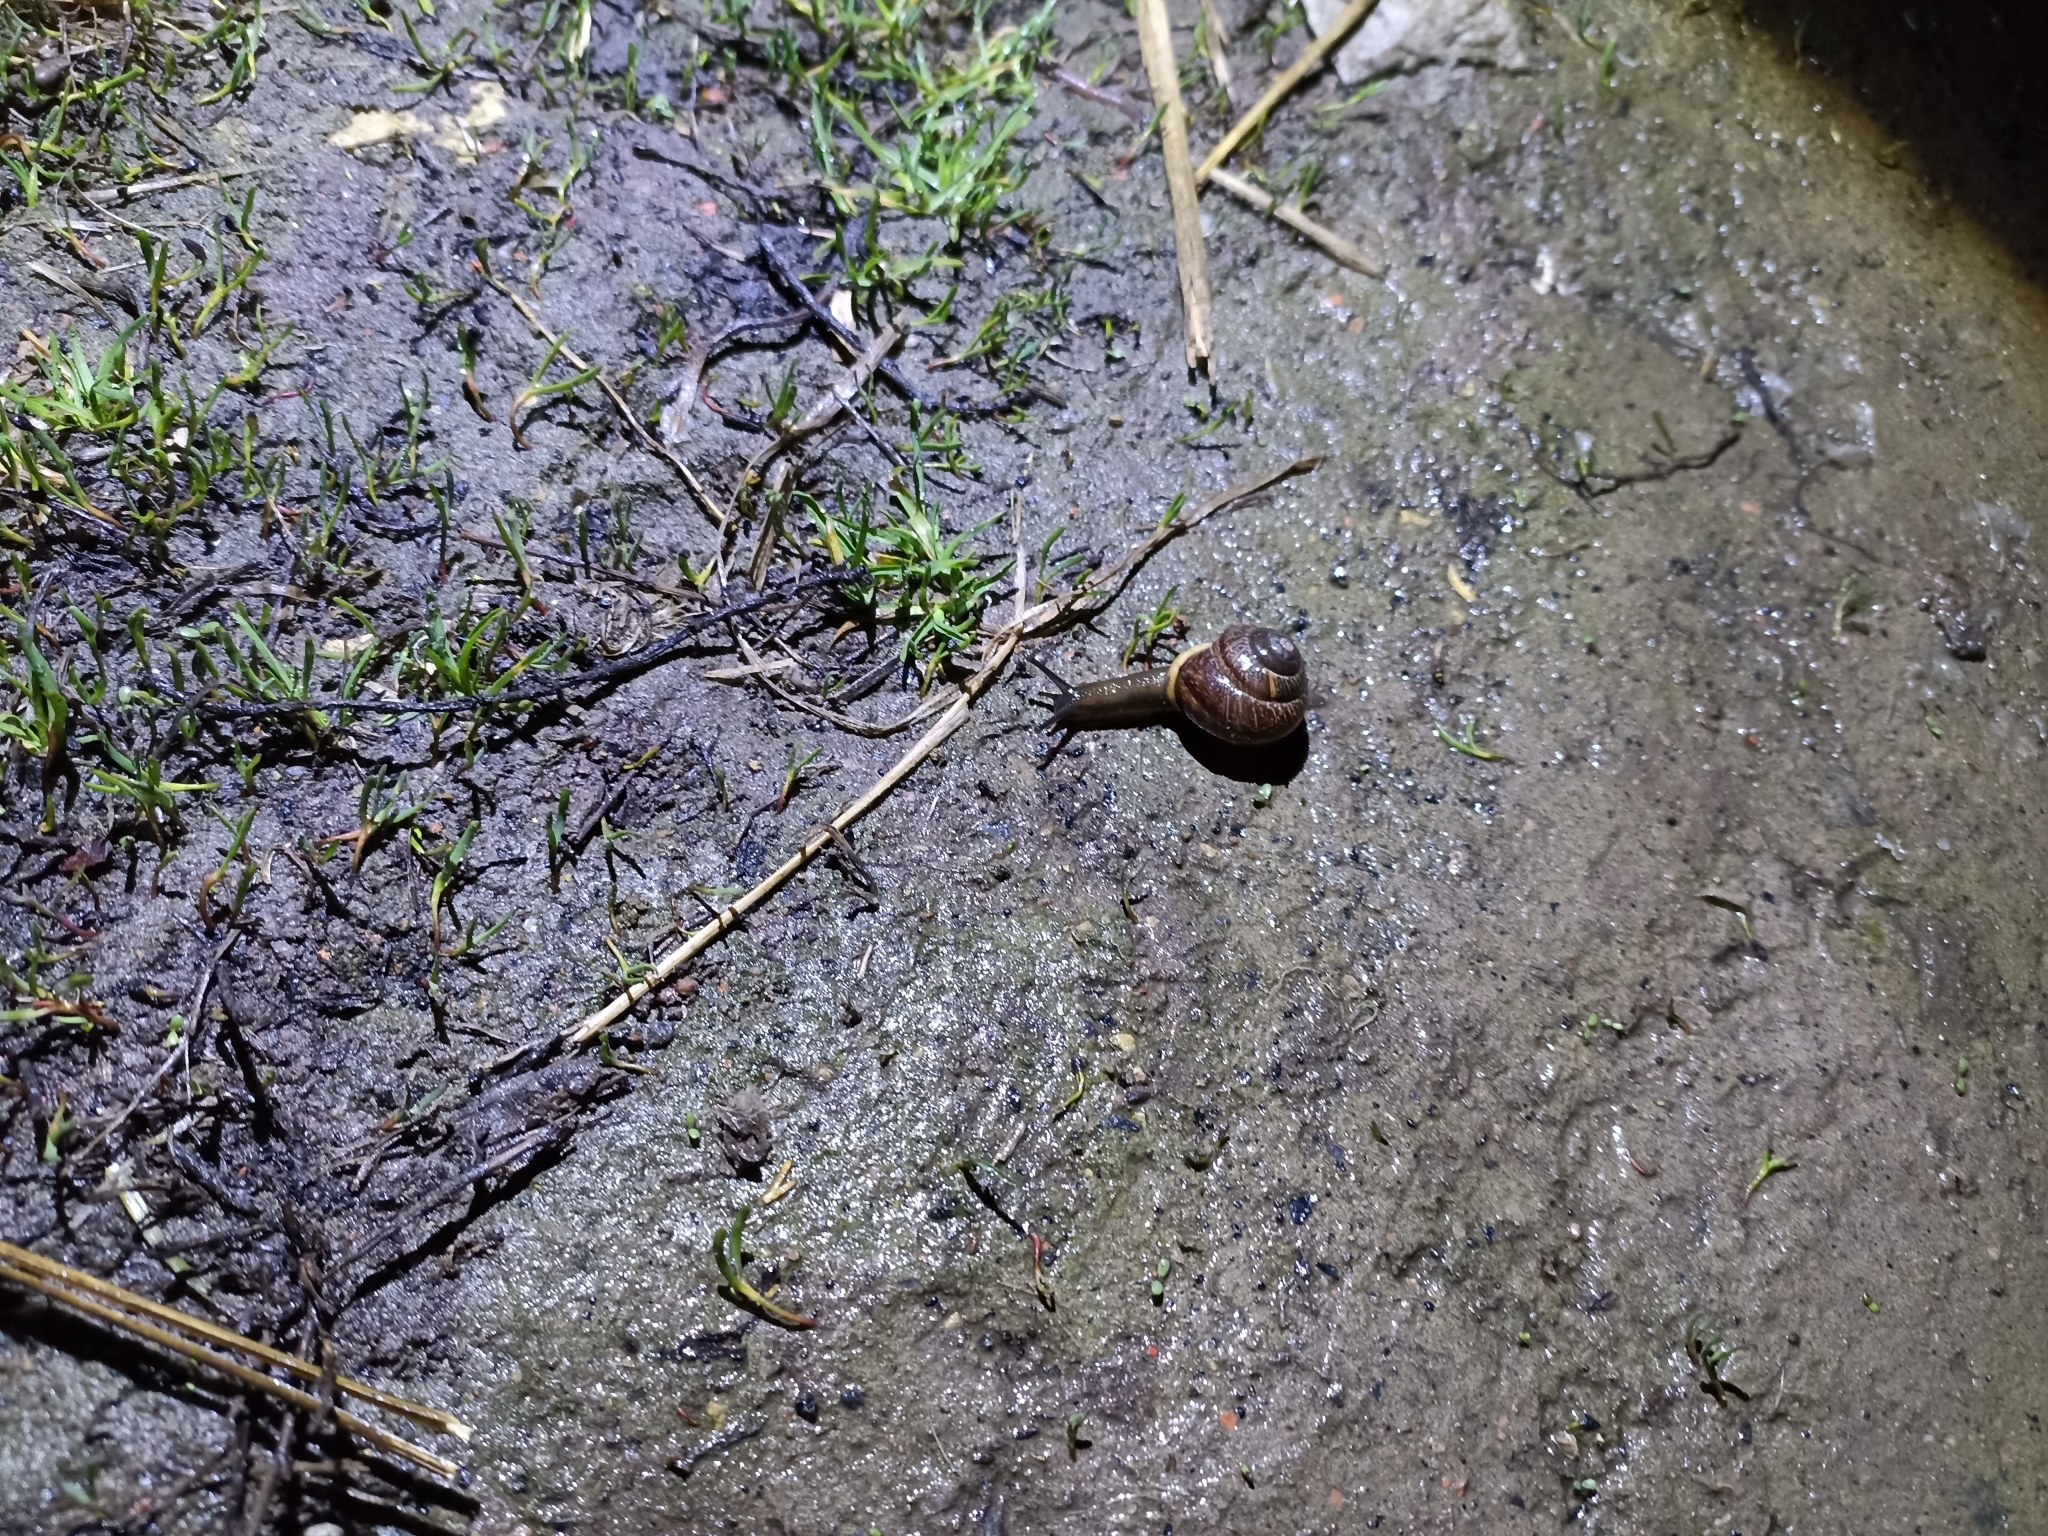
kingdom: Animalia
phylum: Mollusca
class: Gastropoda
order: Stylommatophora
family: Helicidae
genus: Arianta
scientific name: Arianta arbustorum
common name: Copse snail
